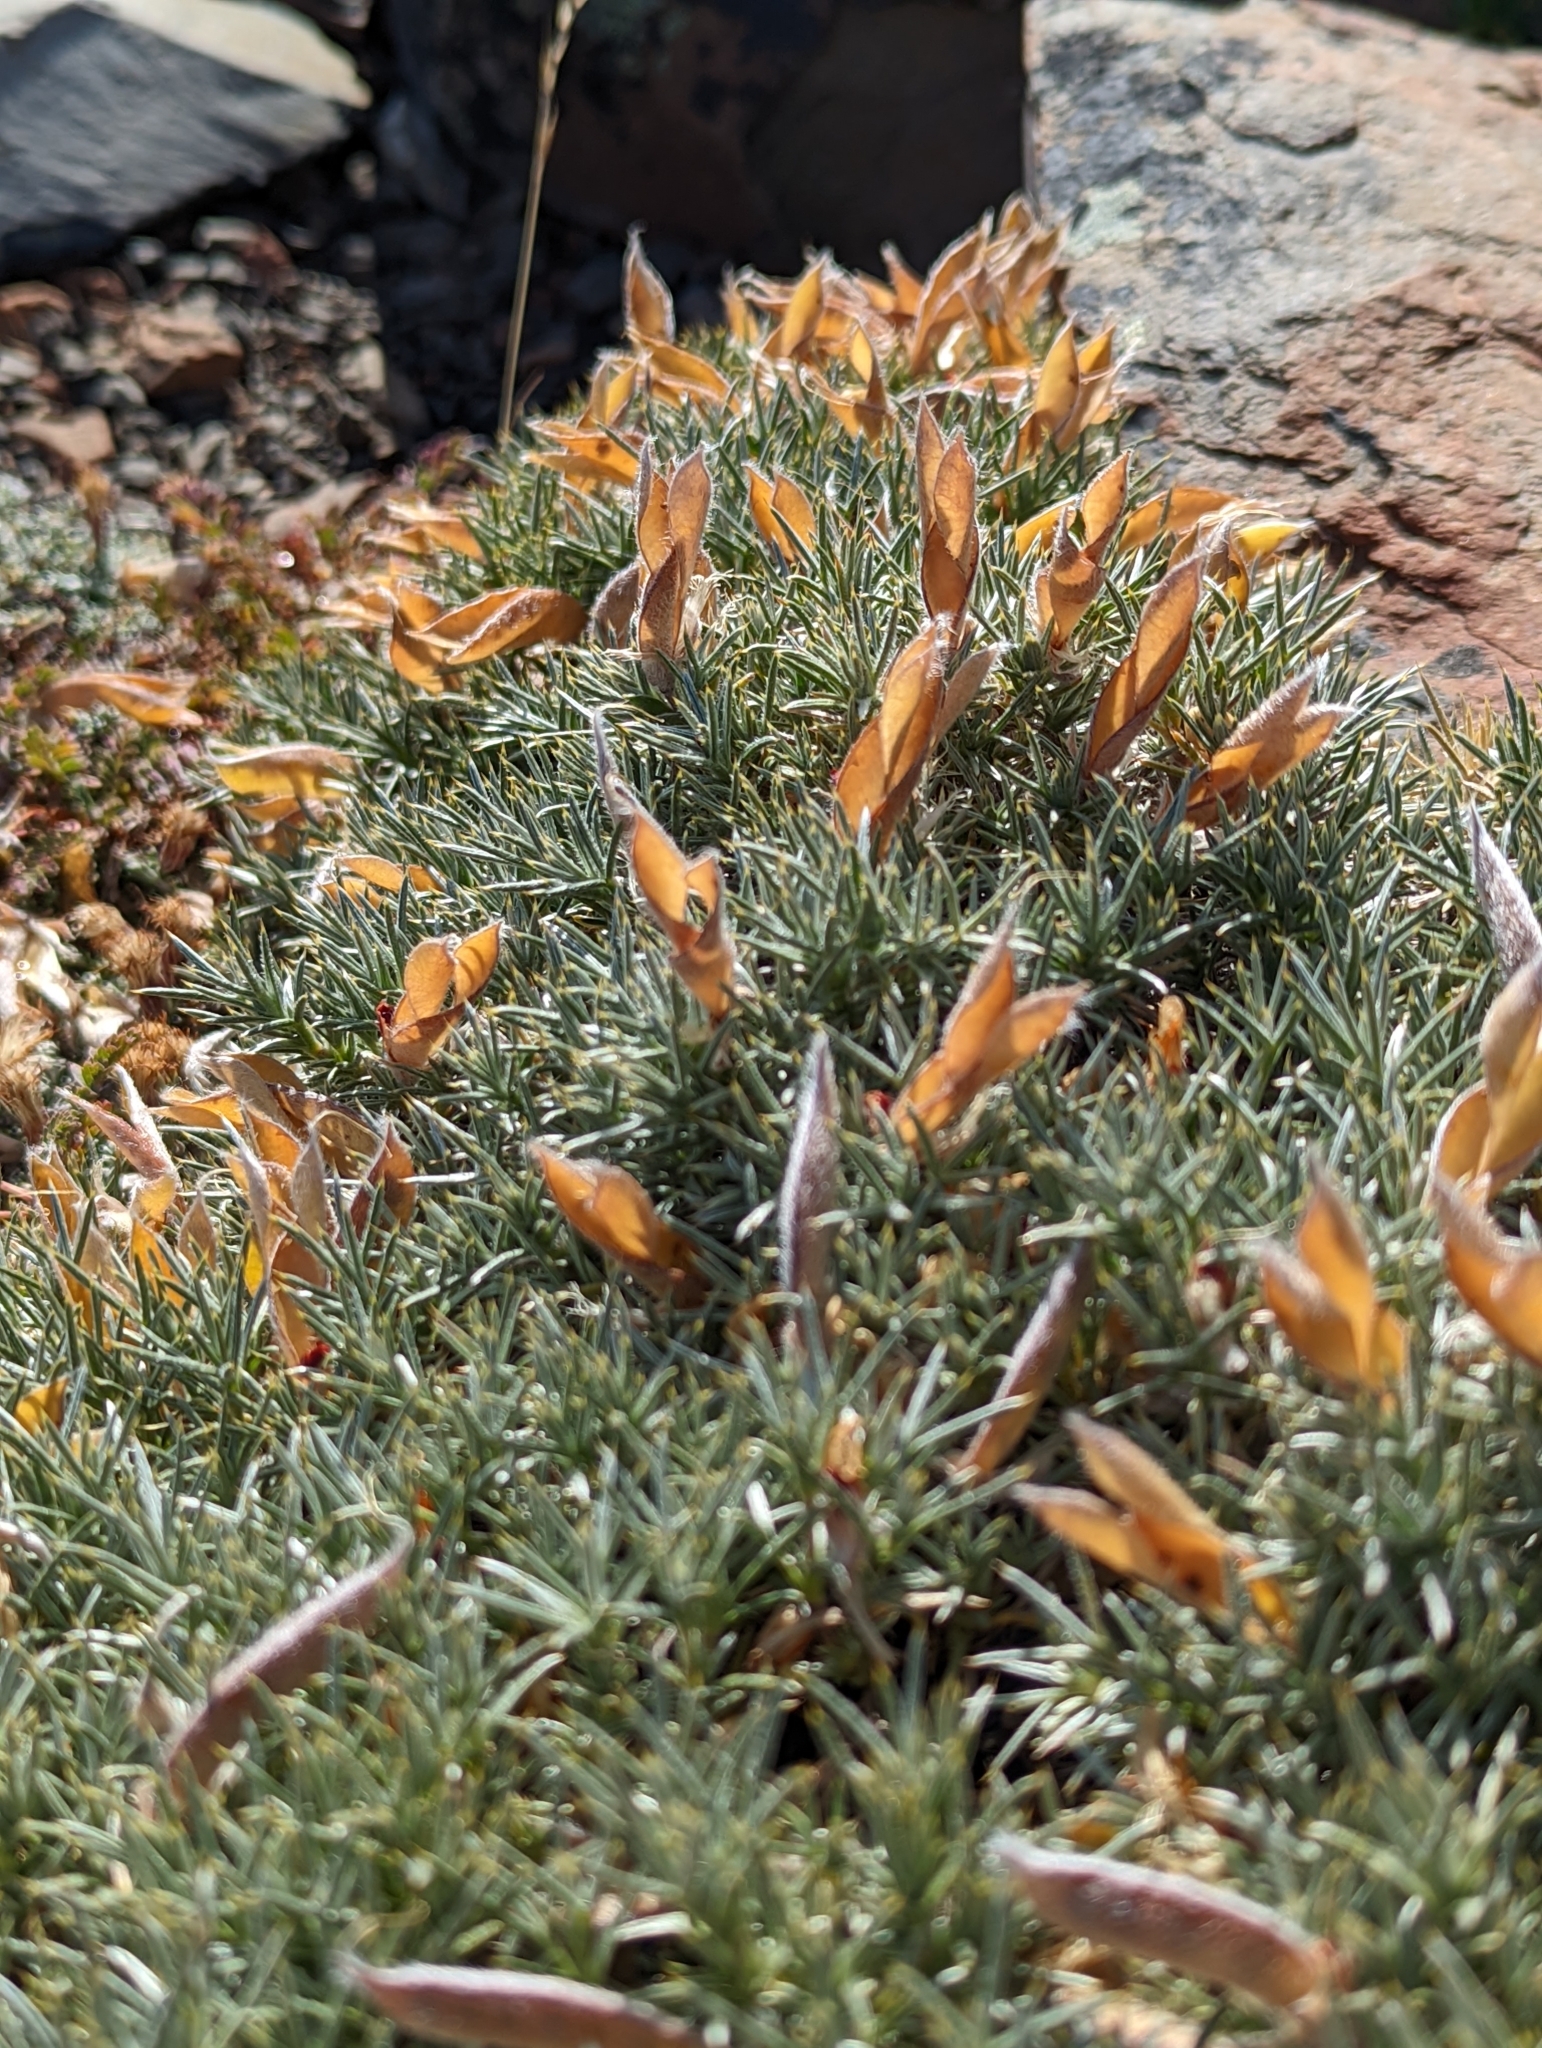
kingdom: Plantae
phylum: Tracheophyta
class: Magnoliopsida
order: Fabales
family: Fabaceae
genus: Anarthrophyllum
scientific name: Anarthrophyllum desideratum
